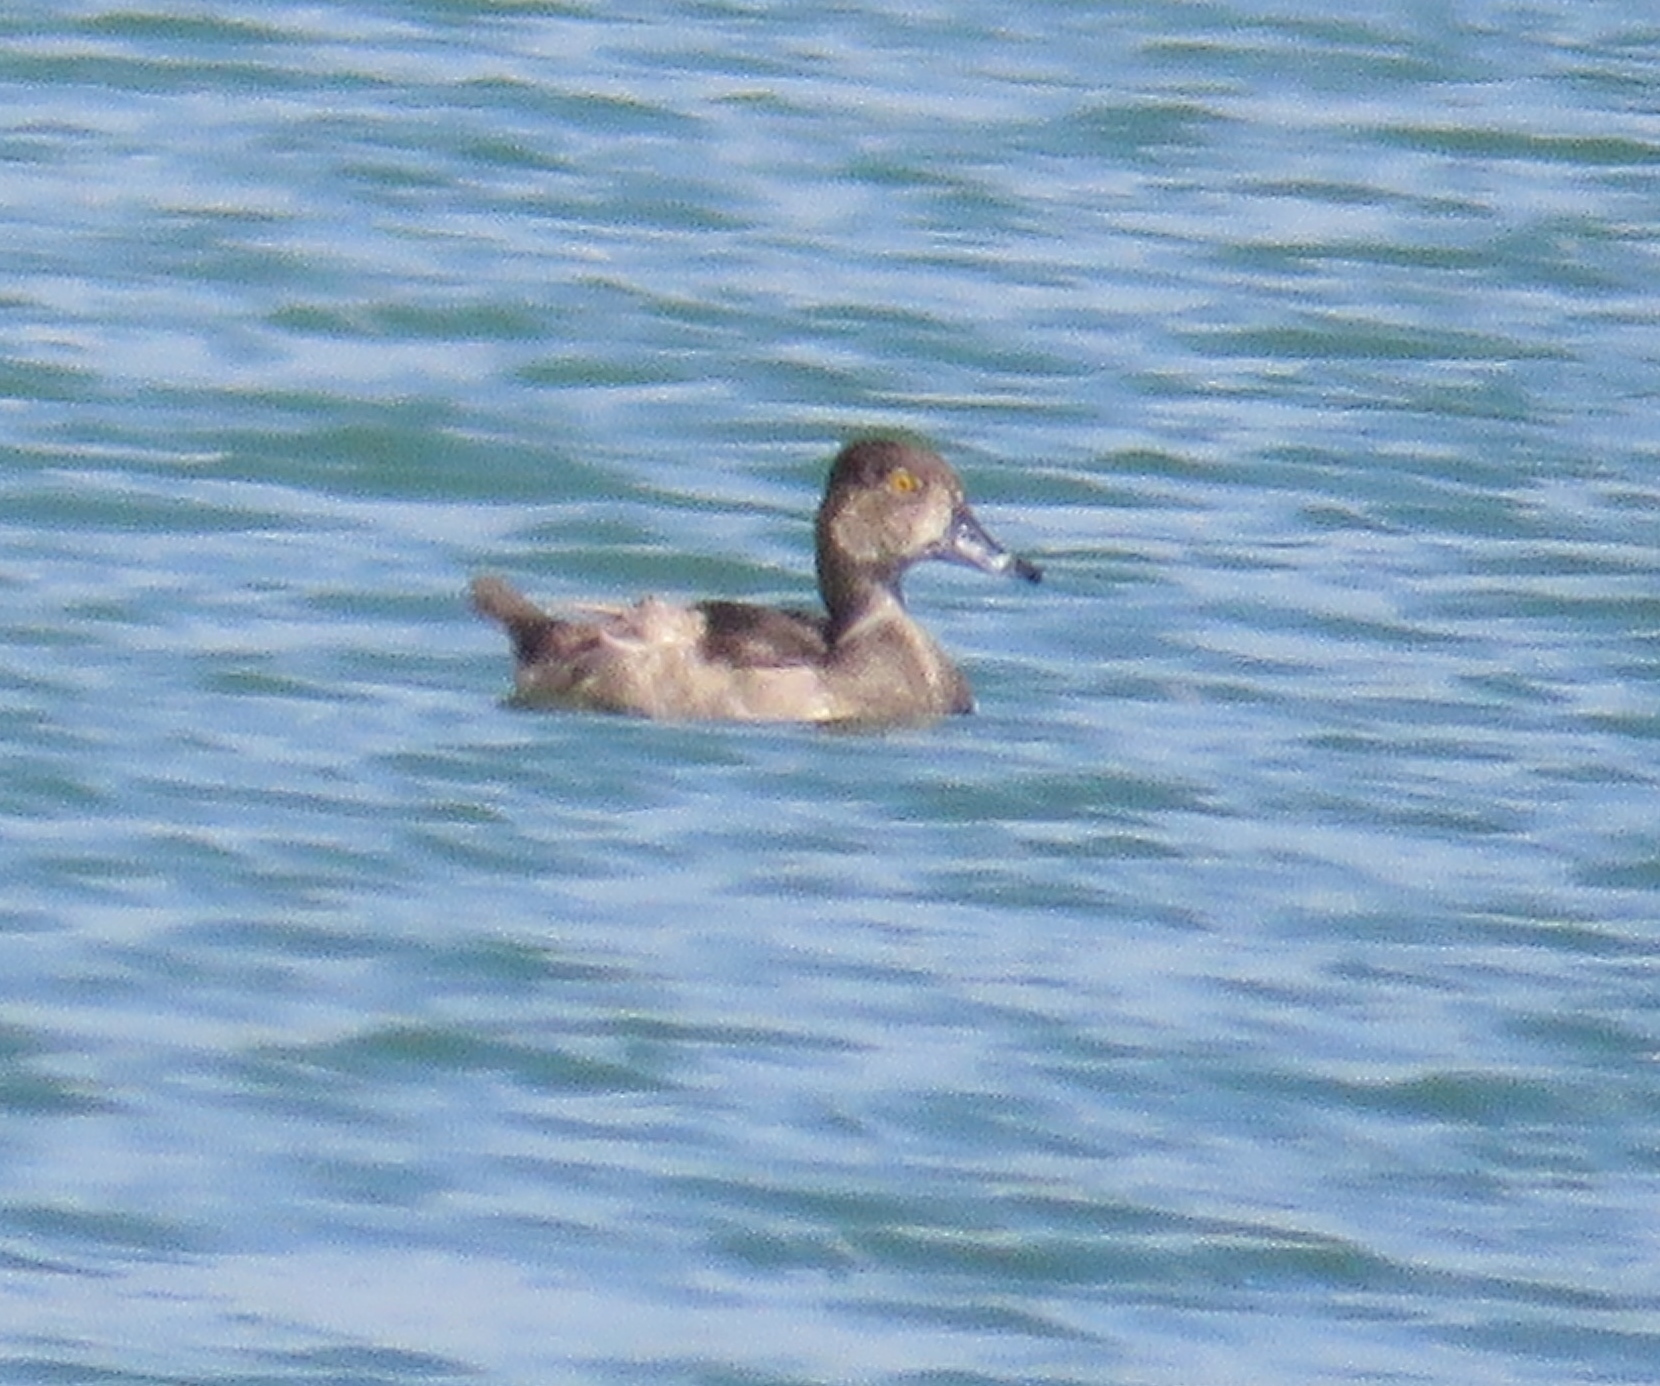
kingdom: Animalia
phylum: Chordata
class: Aves
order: Anseriformes
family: Anatidae
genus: Aythya
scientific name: Aythya collaris
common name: Ring-necked duck
